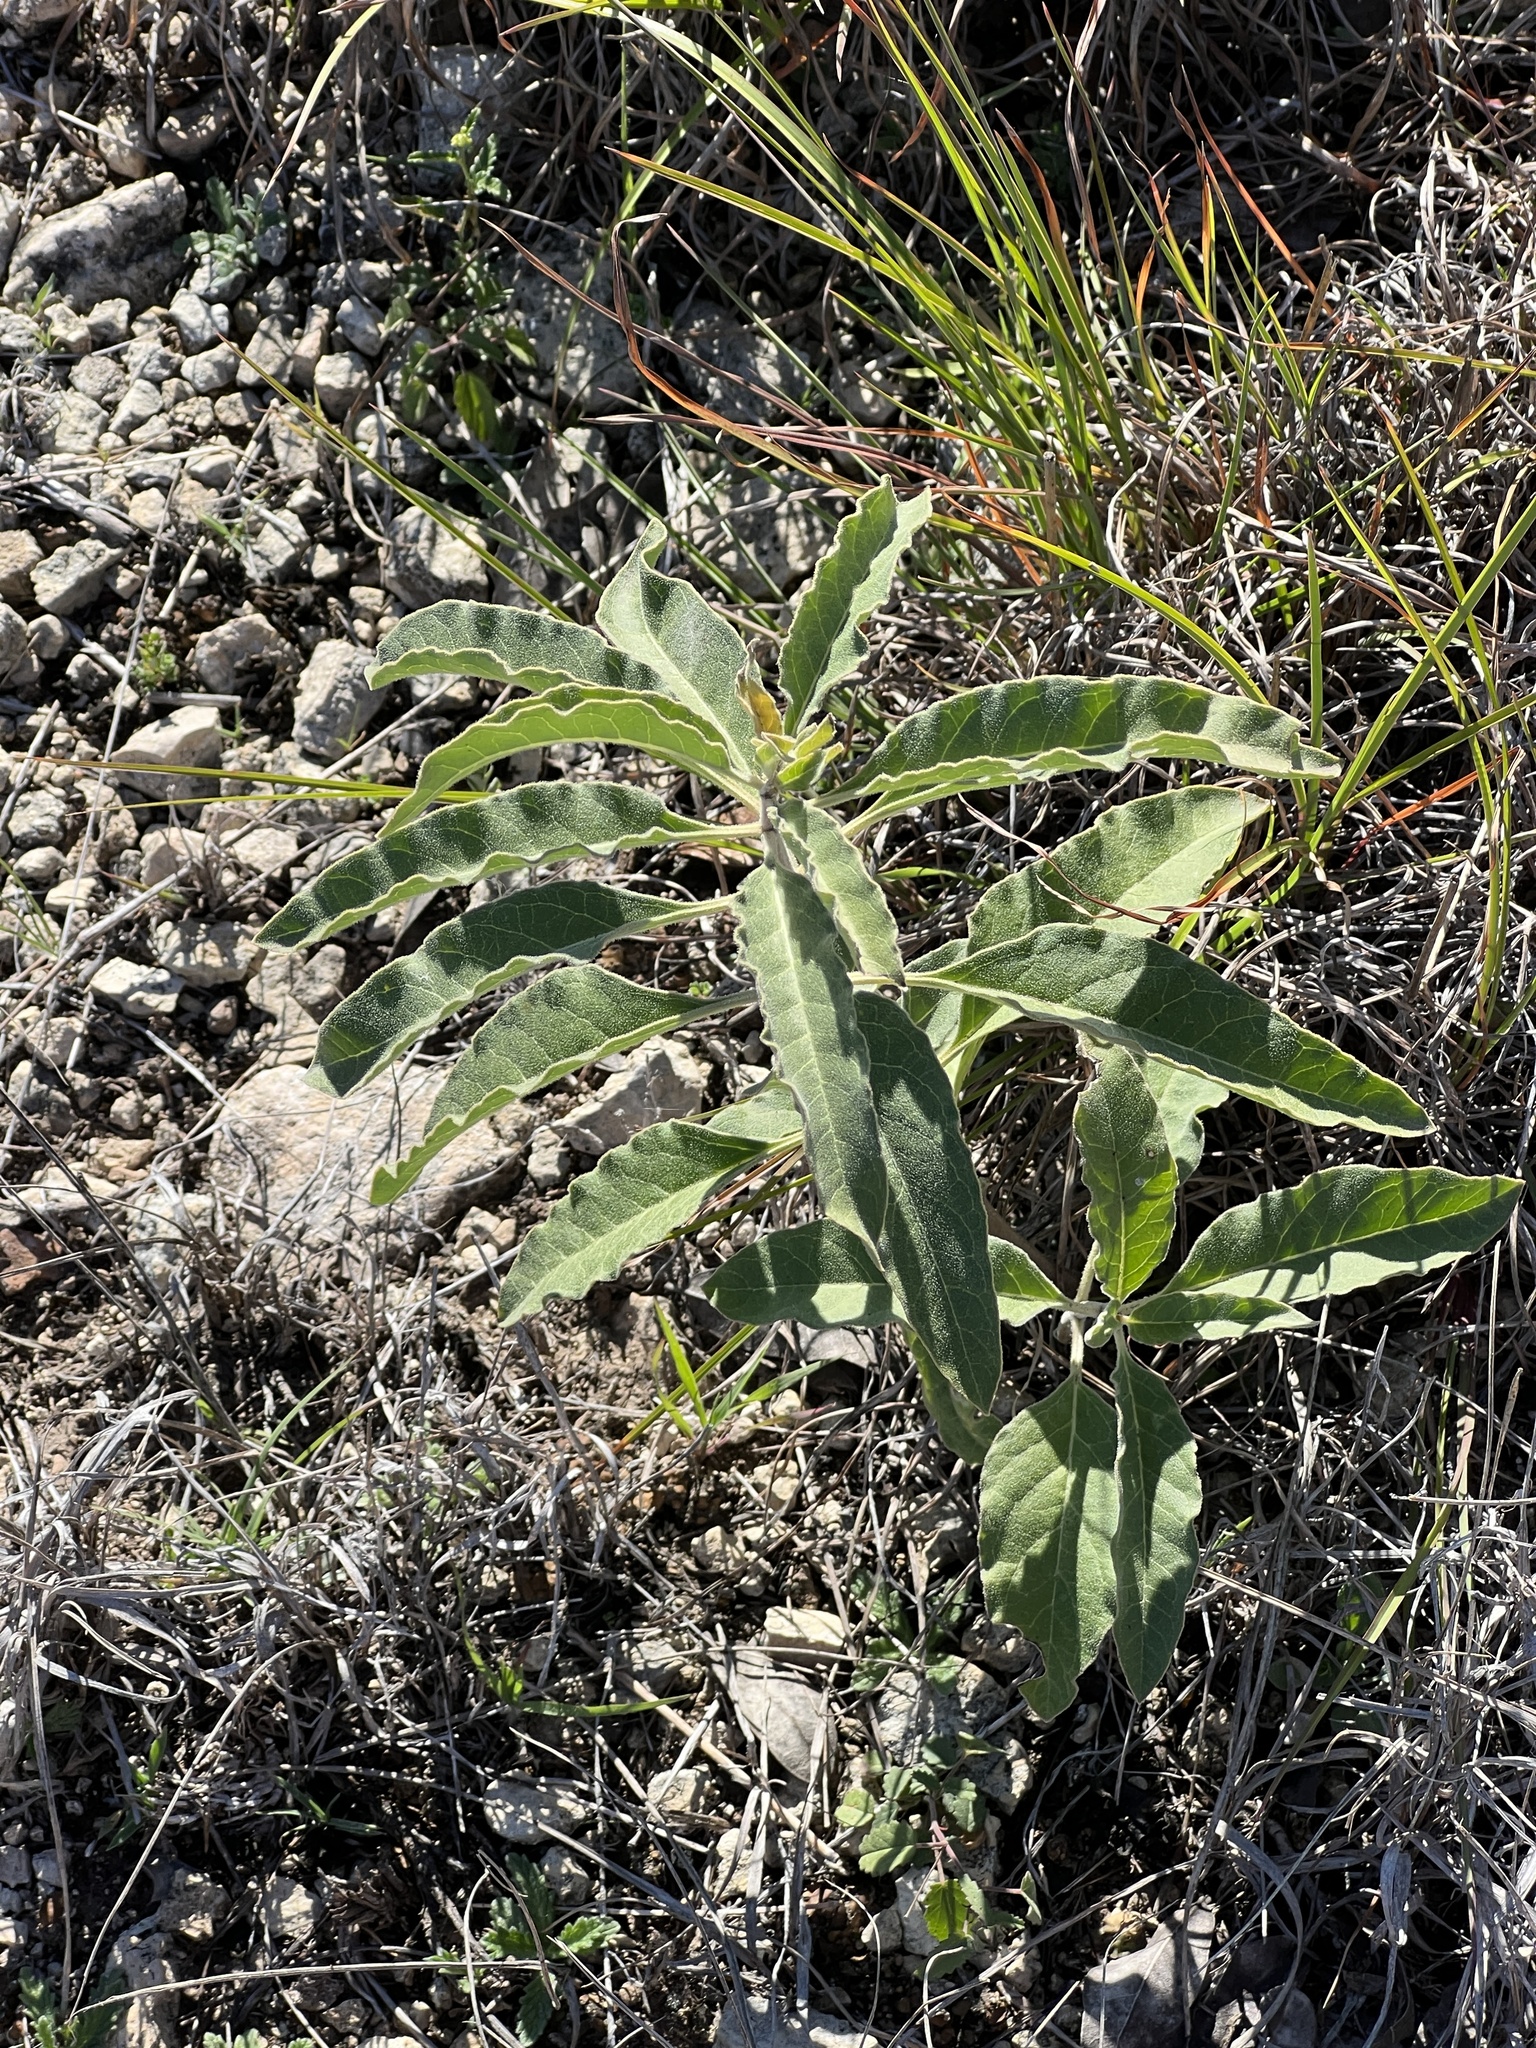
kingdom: Plantae
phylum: Tracheophyta
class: Magnoliopsida
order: Gentianales
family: Apocynaceae
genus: Asclepias
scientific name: Asclepias oenotheroides
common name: Zizotes milkweed
